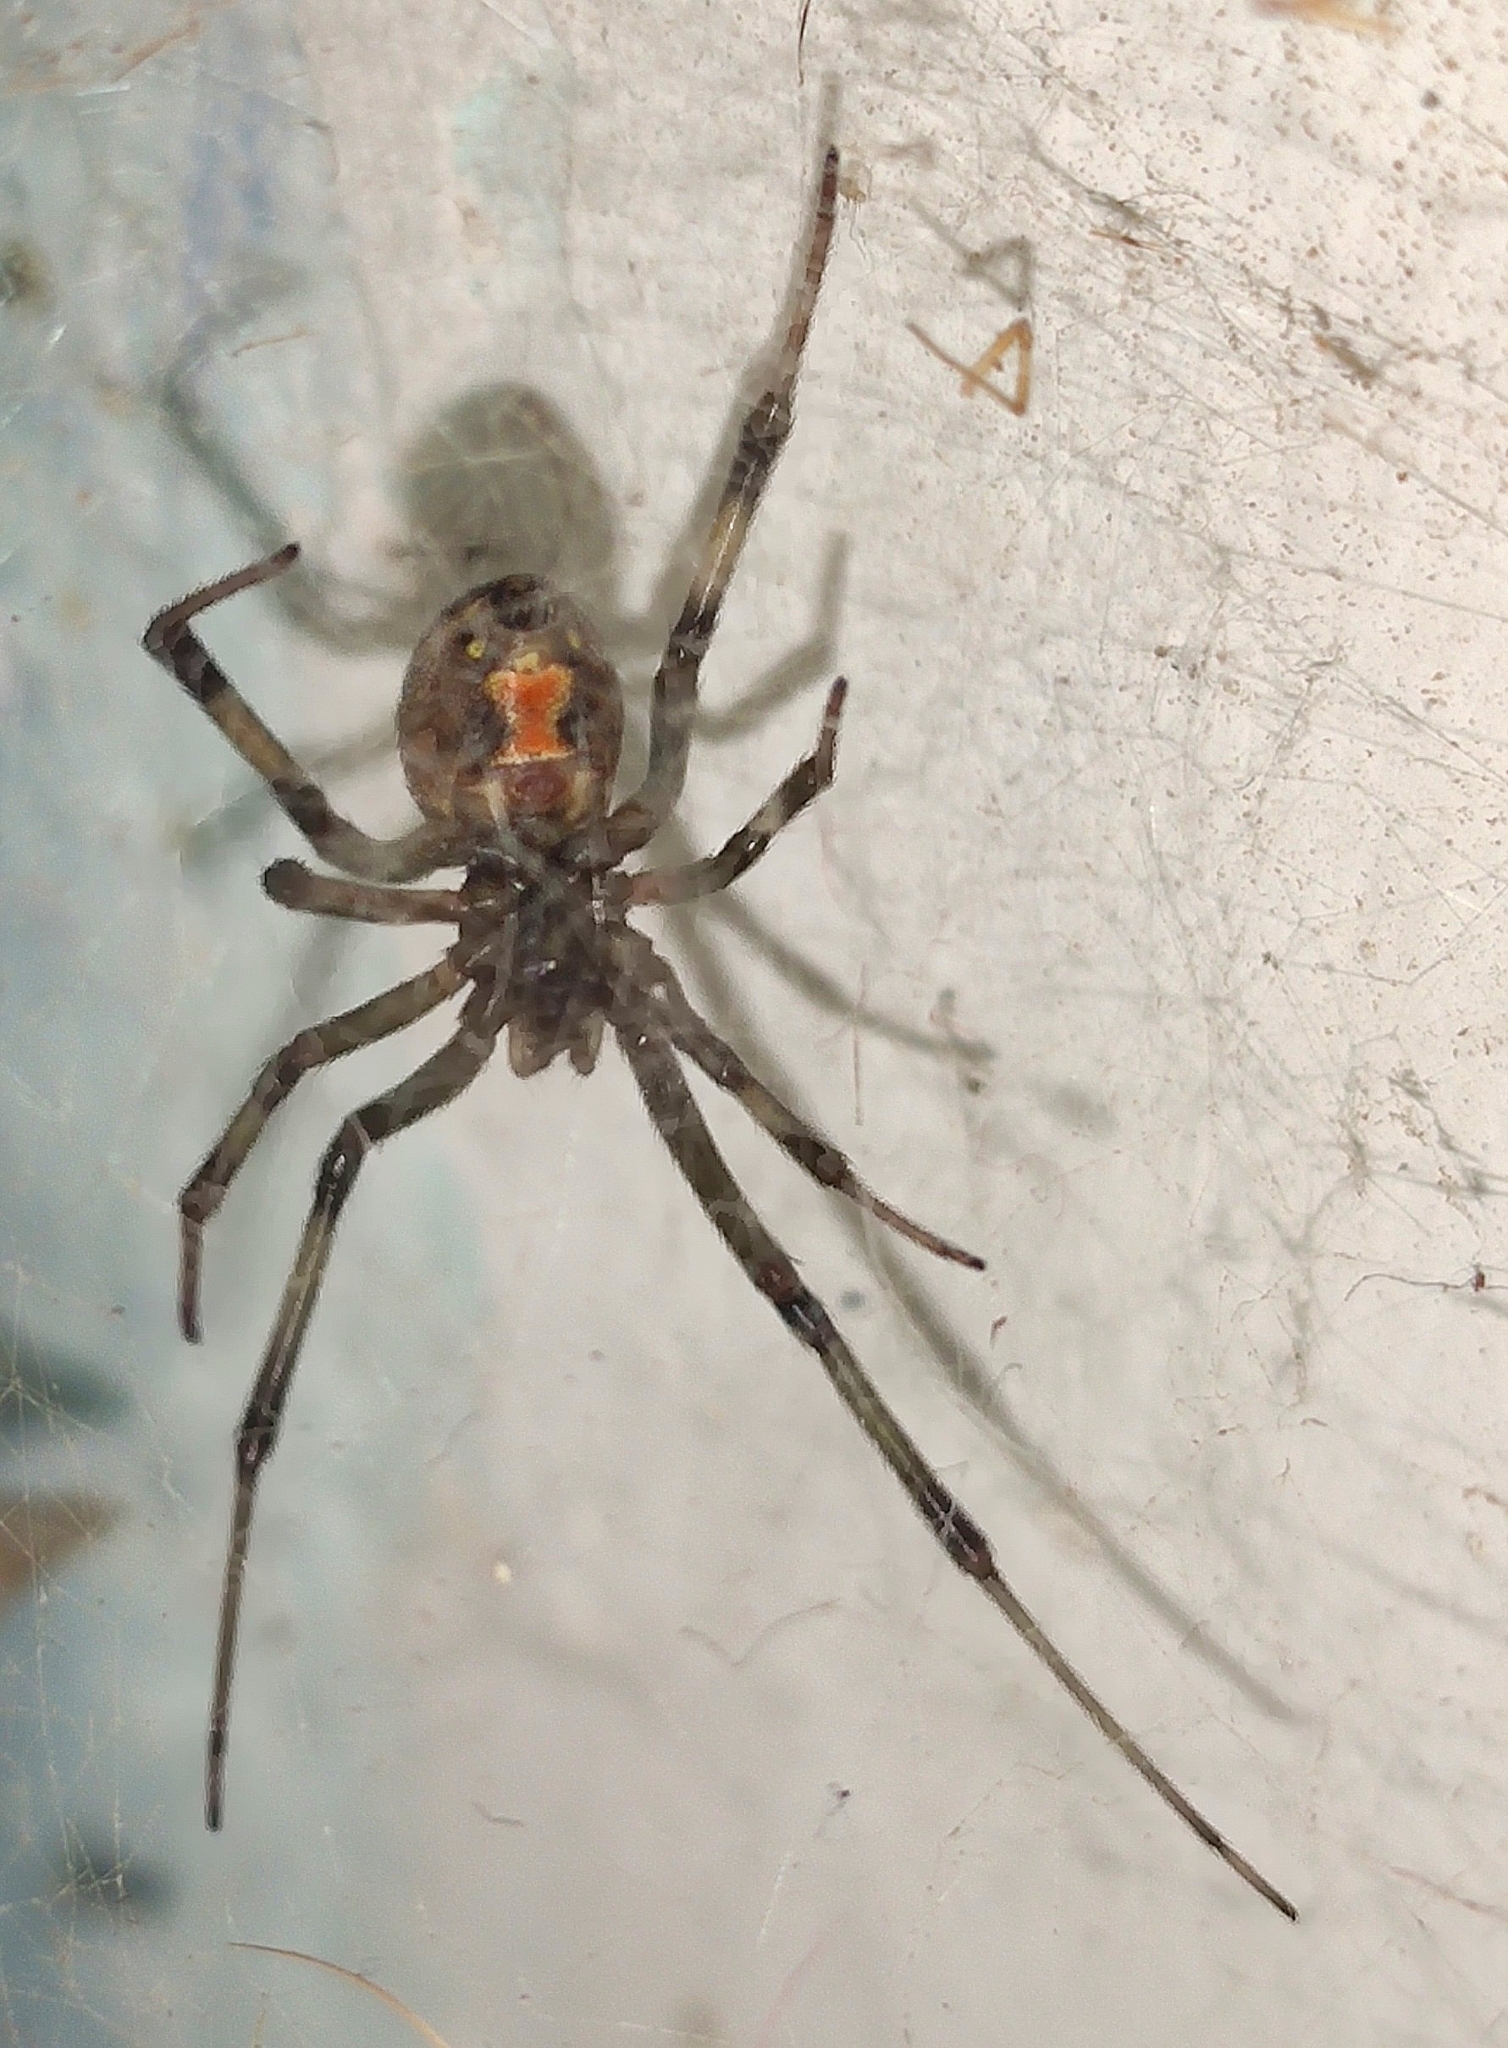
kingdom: Animalia
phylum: Arthropoda
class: Arachnida
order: Araneae
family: Theridiidae
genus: Latrodectus
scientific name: Latrodectus geometricus
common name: Brown widow spider
